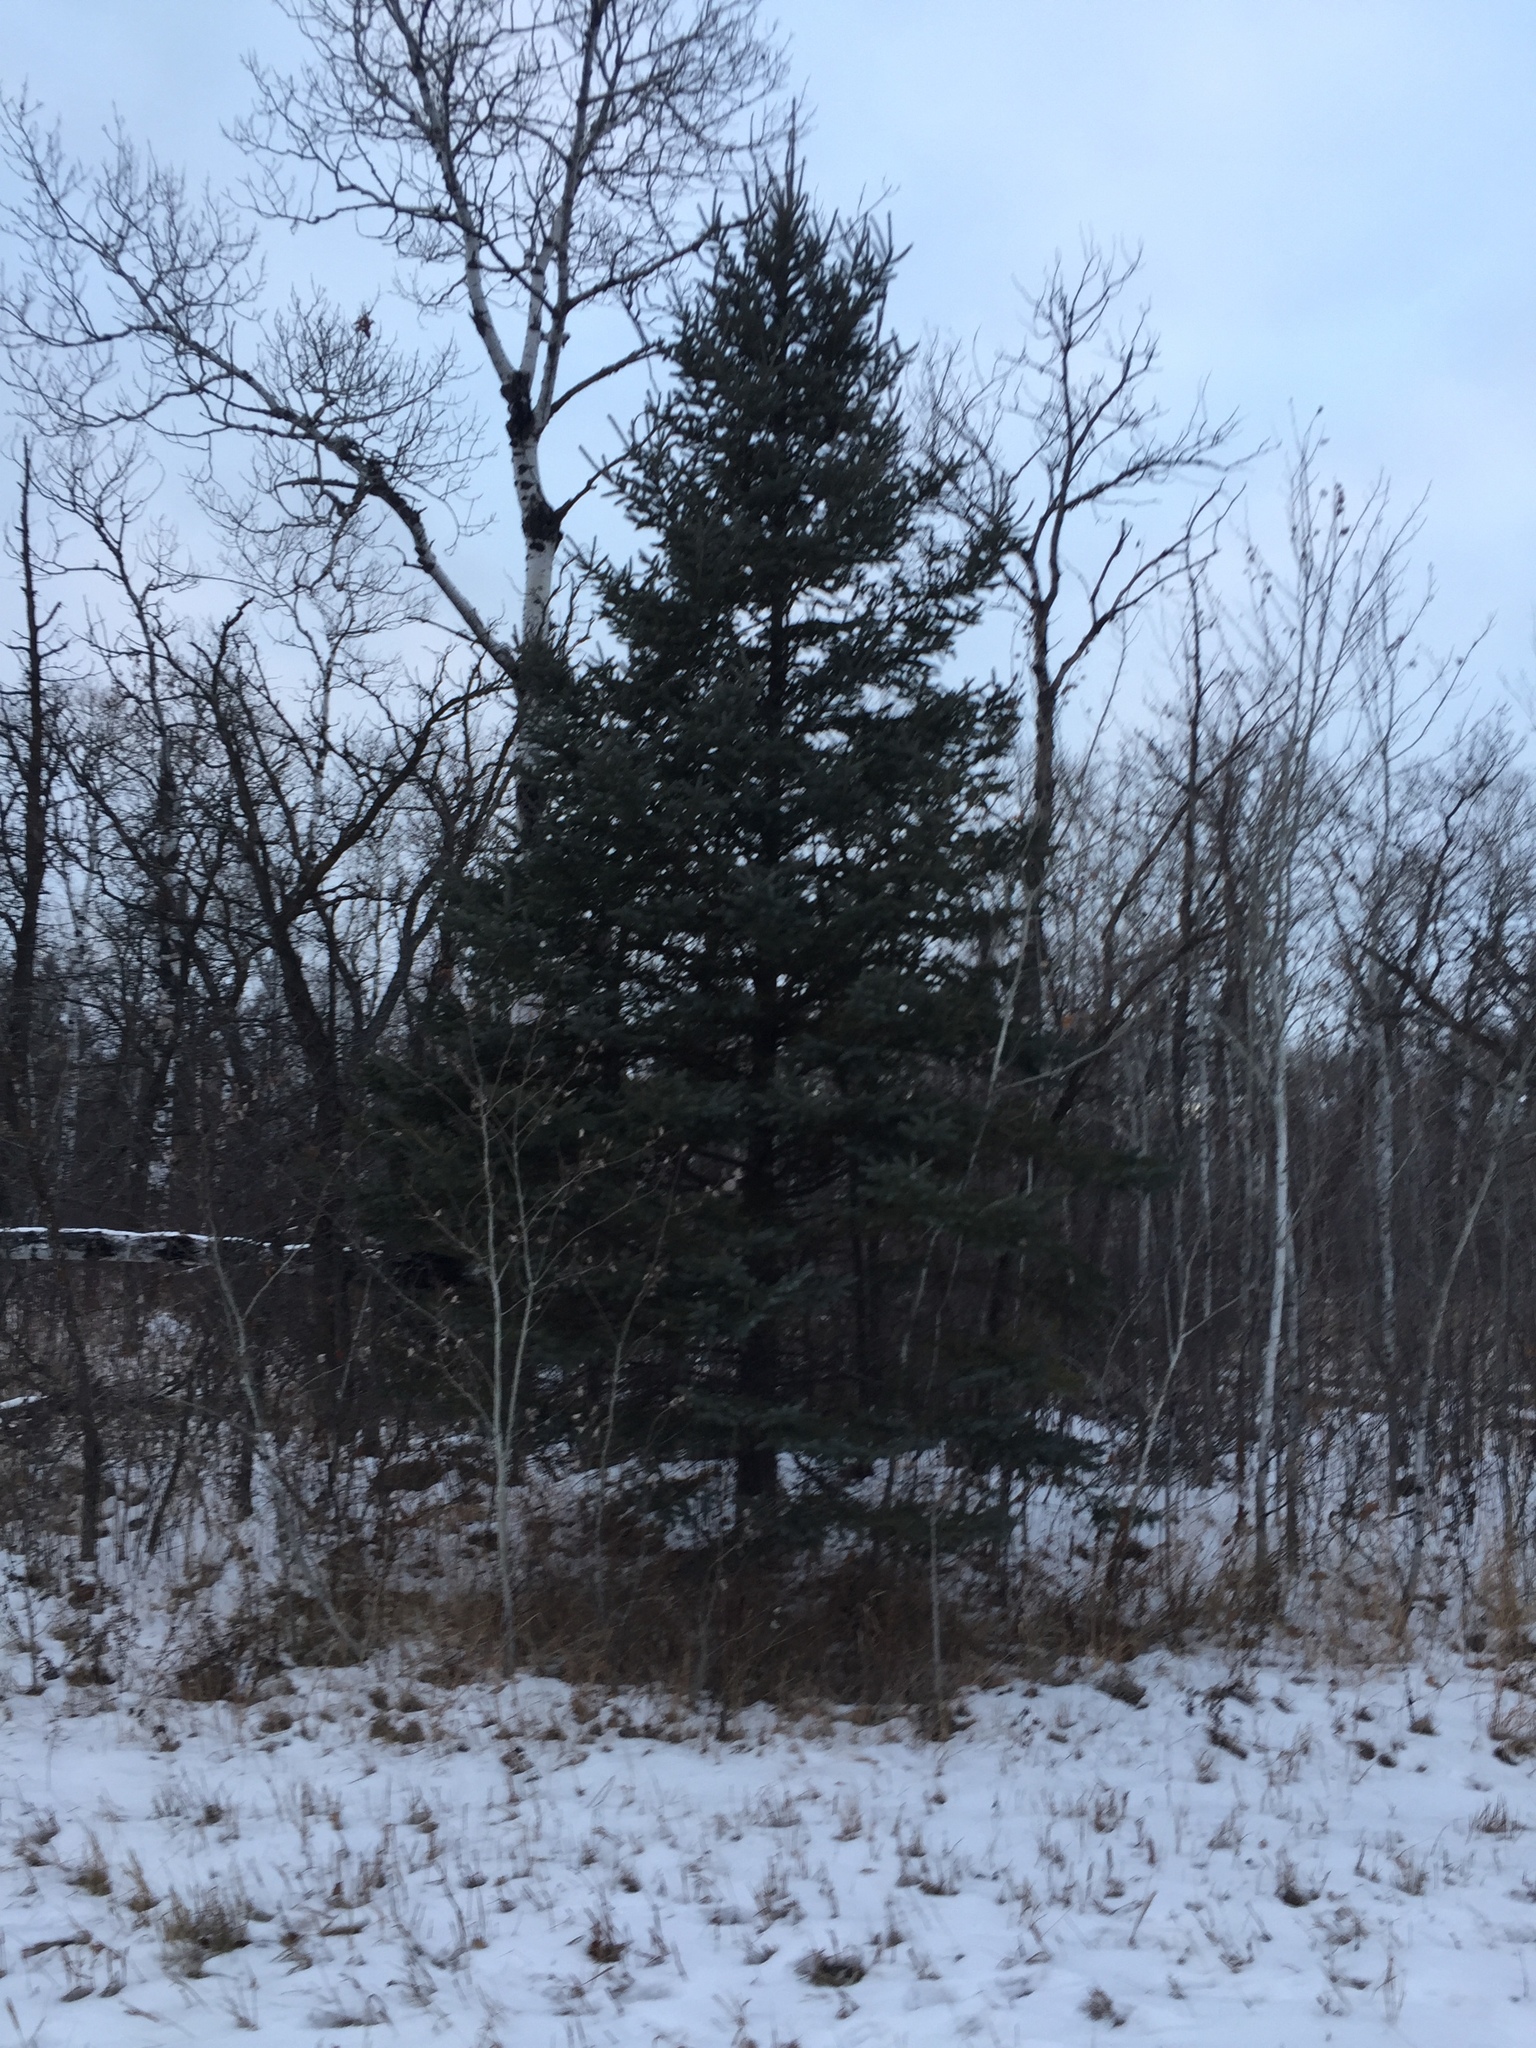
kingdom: Plantae
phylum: Tracheophyta
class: Pinopsida
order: Pinales
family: Pinaceae
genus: Picea
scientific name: Picea glauca
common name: White spruce
